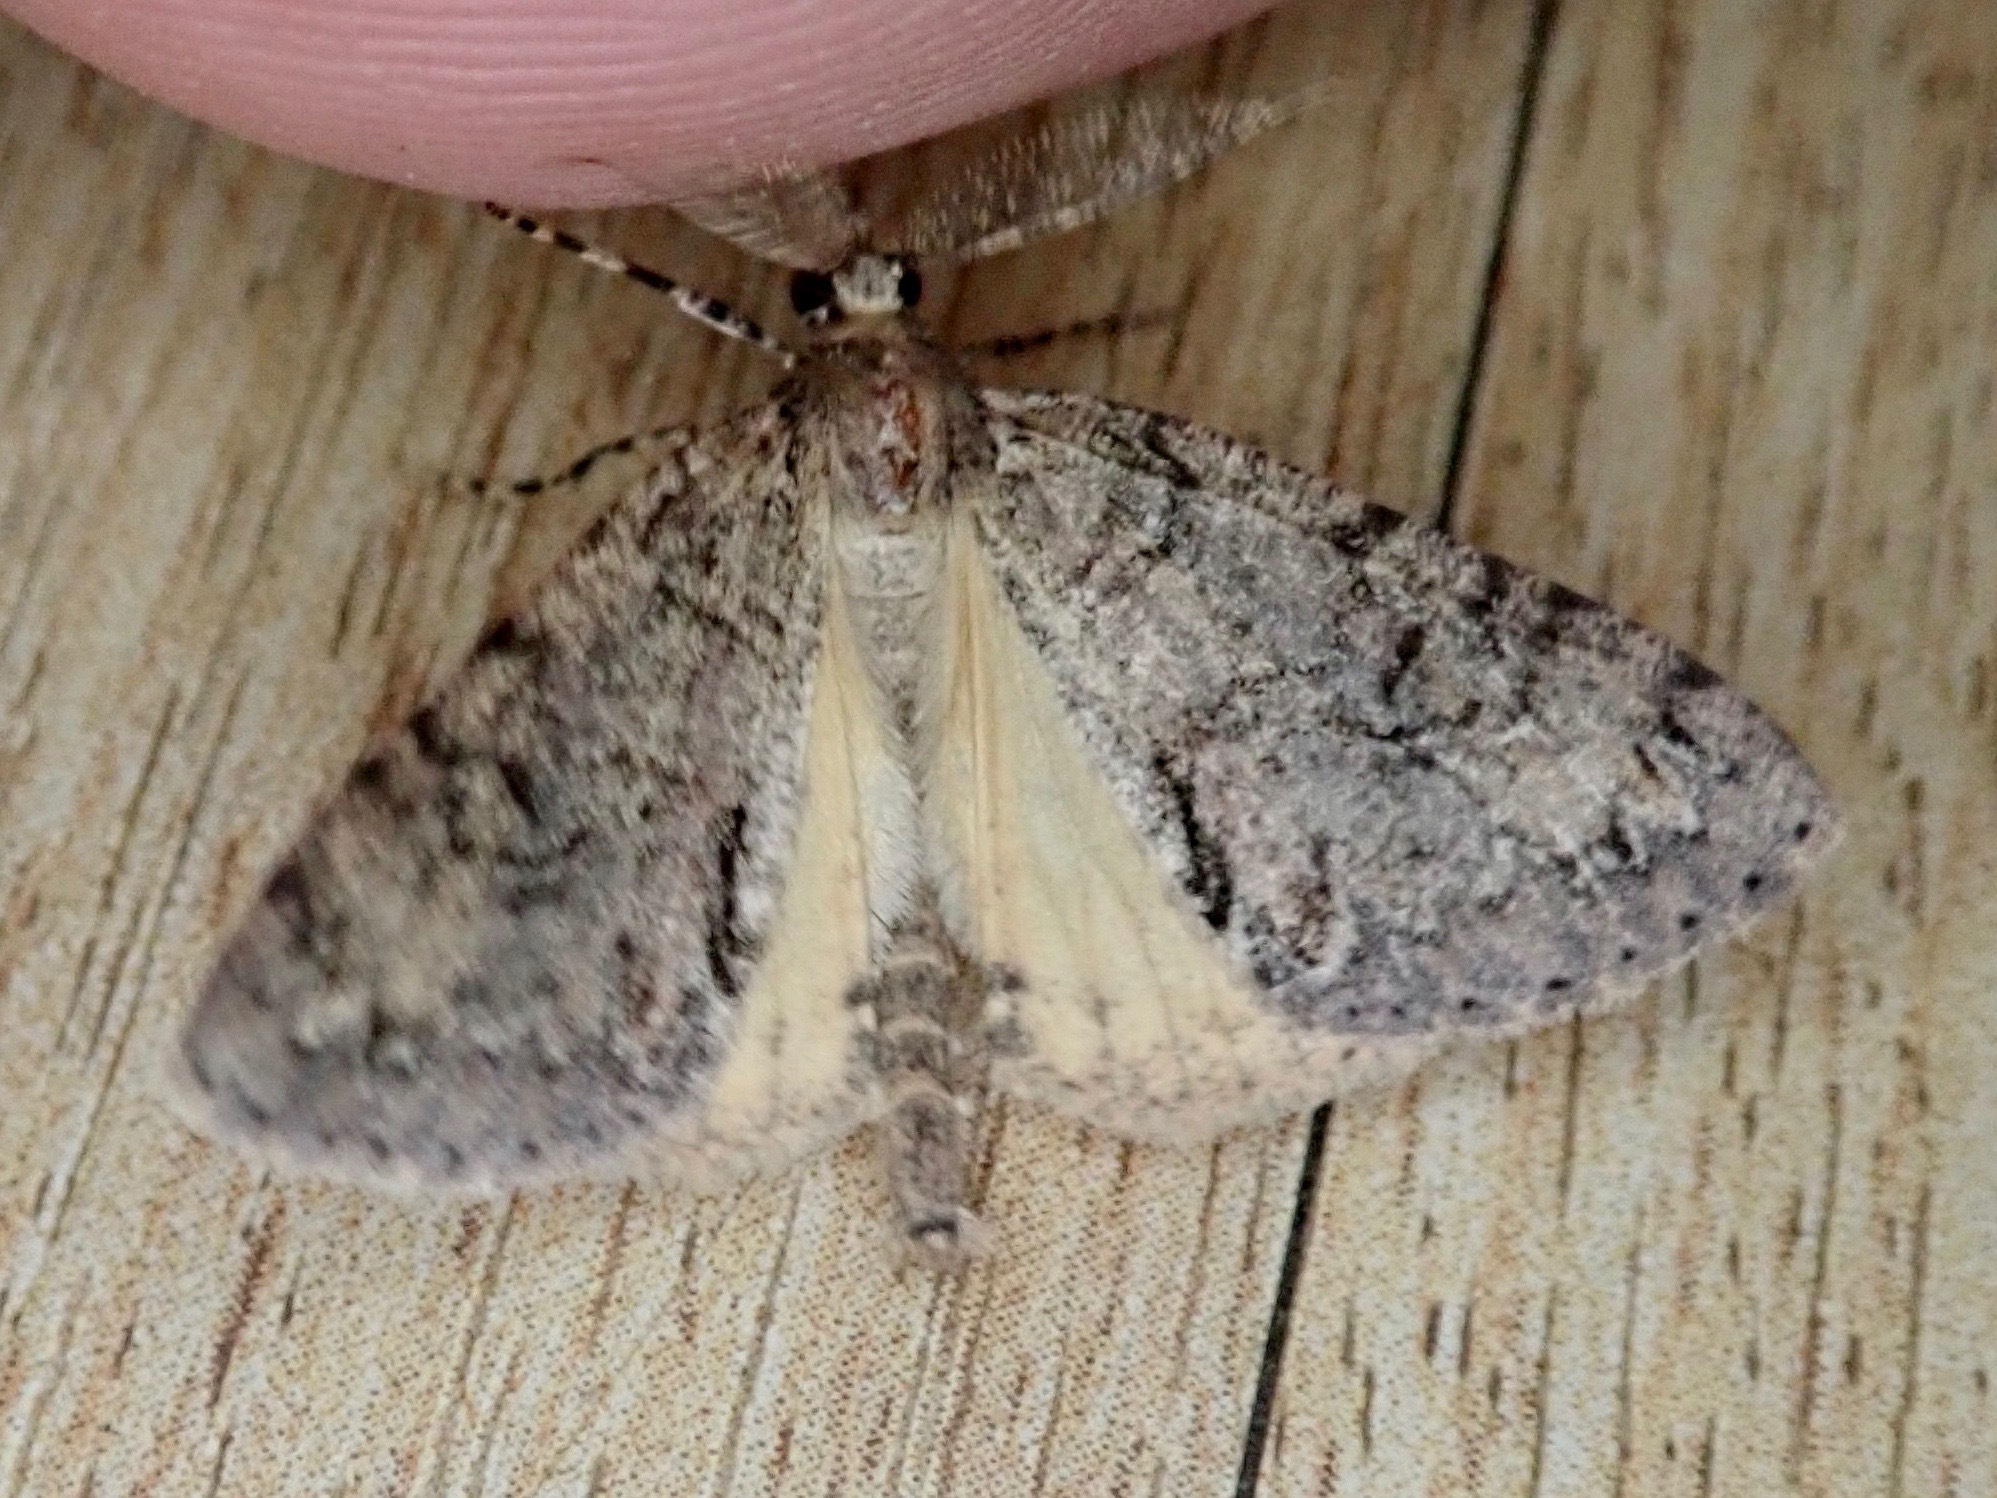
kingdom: Animalia
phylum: Arthropoda
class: Insecta
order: Lepidoptera
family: Geometridae
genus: Pseudocoremia
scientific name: Pseudocoremia suavis
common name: Common forest looper
